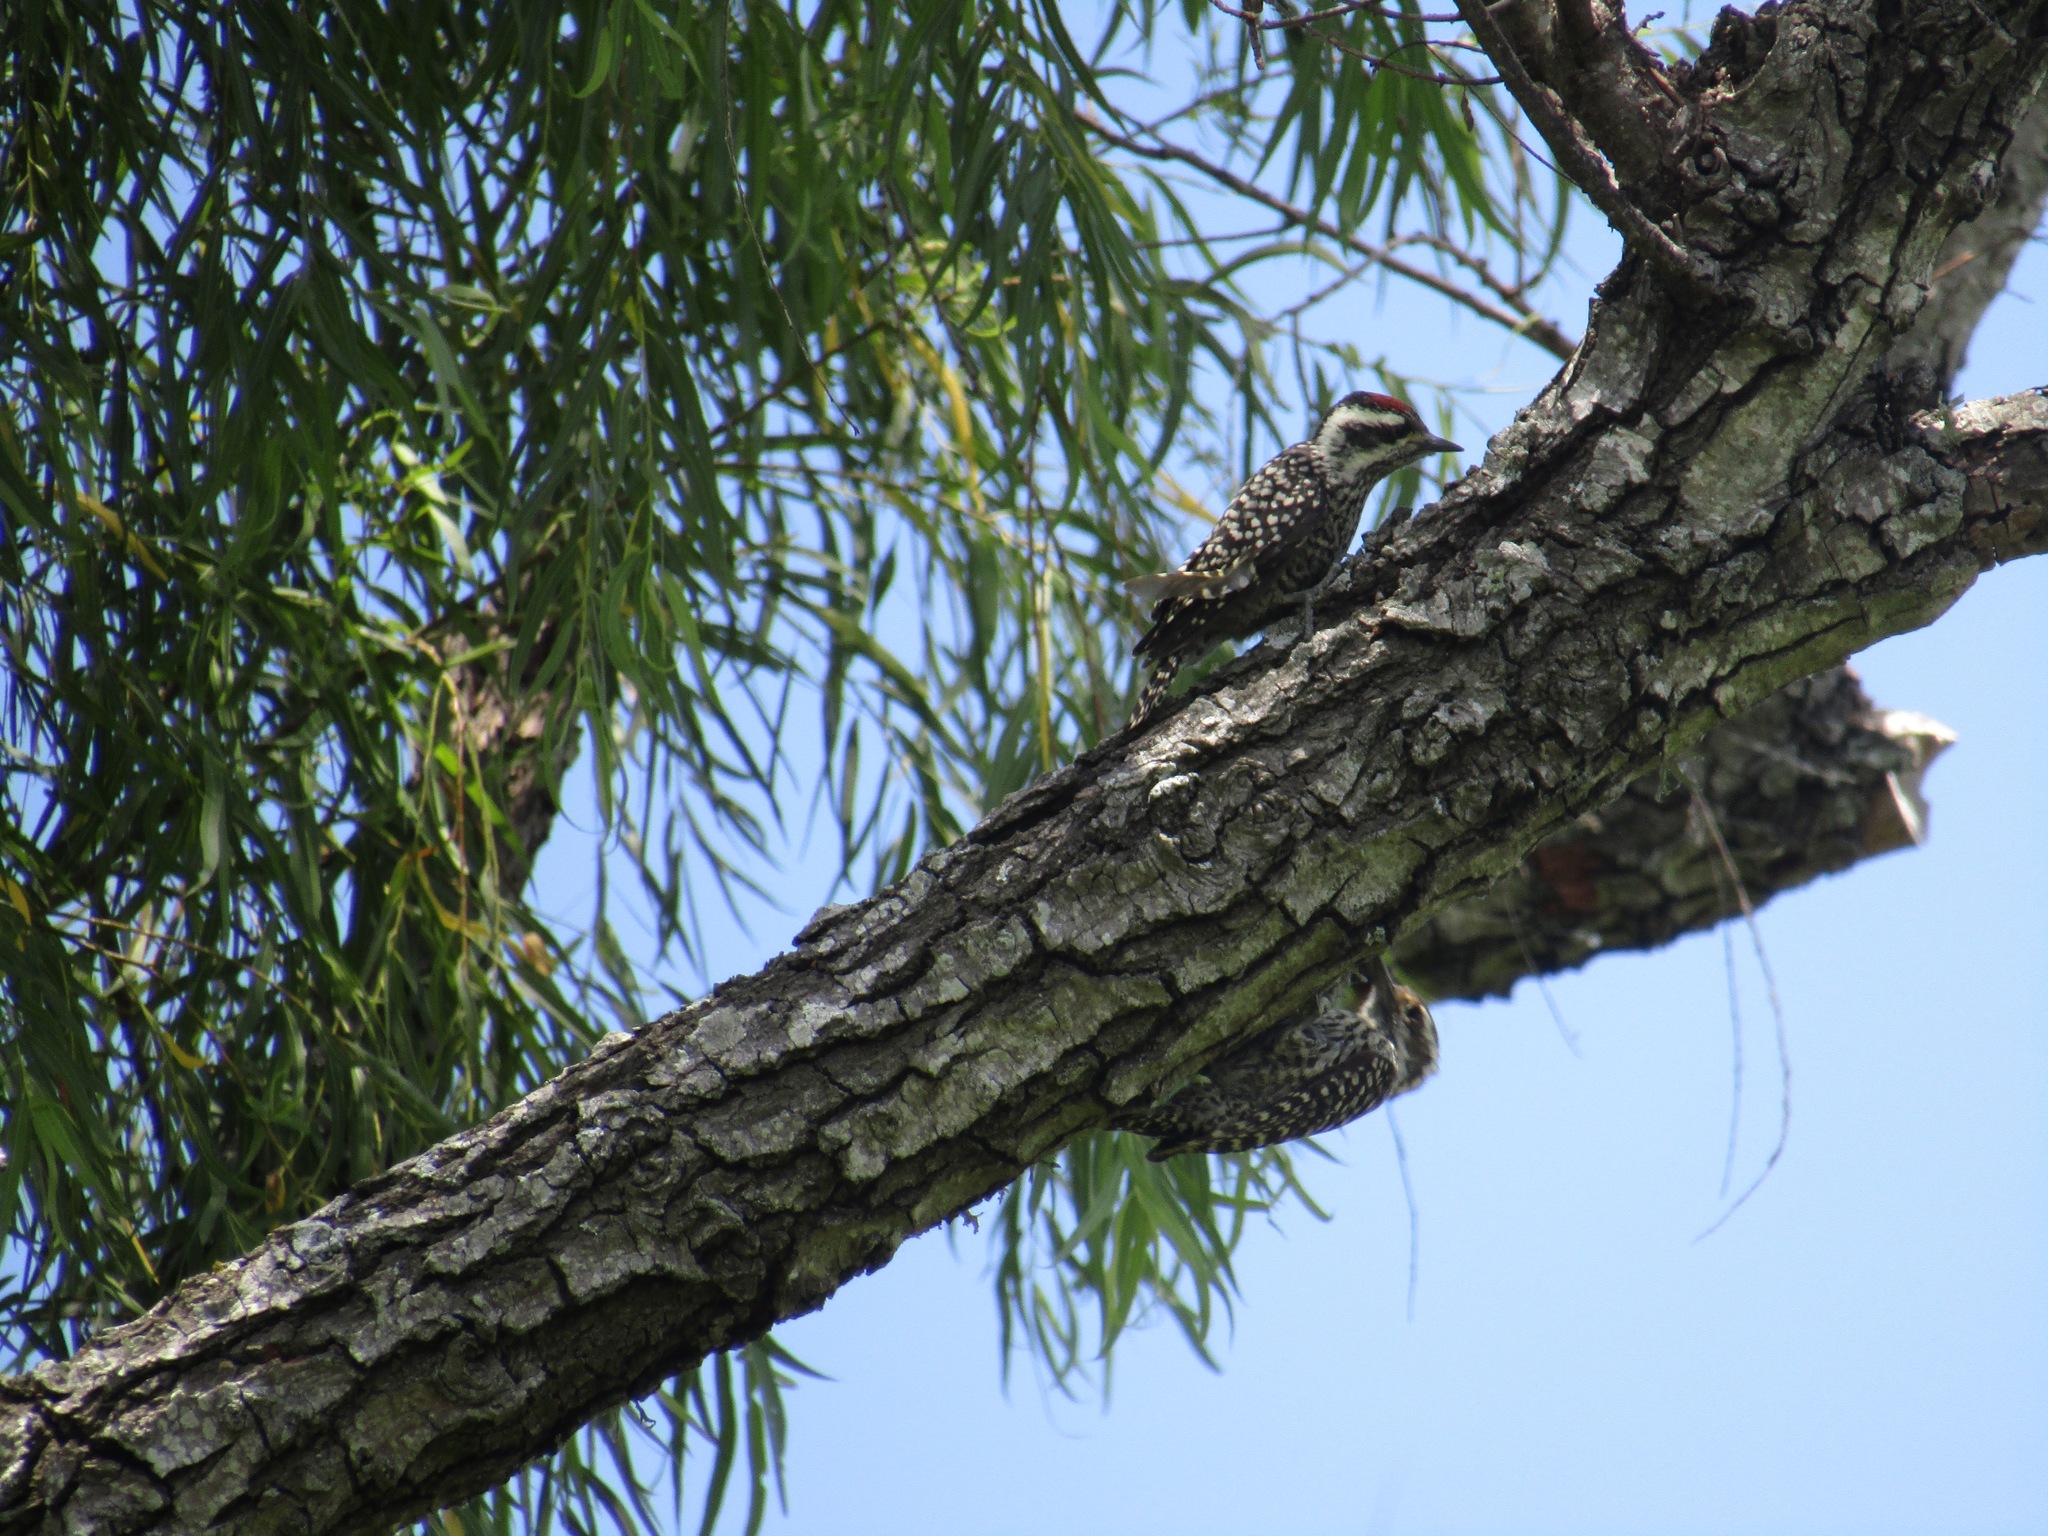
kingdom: Animalia
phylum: Chordata
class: Aves
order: Piciformes
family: Picidae
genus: Veniliornis
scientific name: Veniliornis mixtus
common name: Checkered woodpecker
